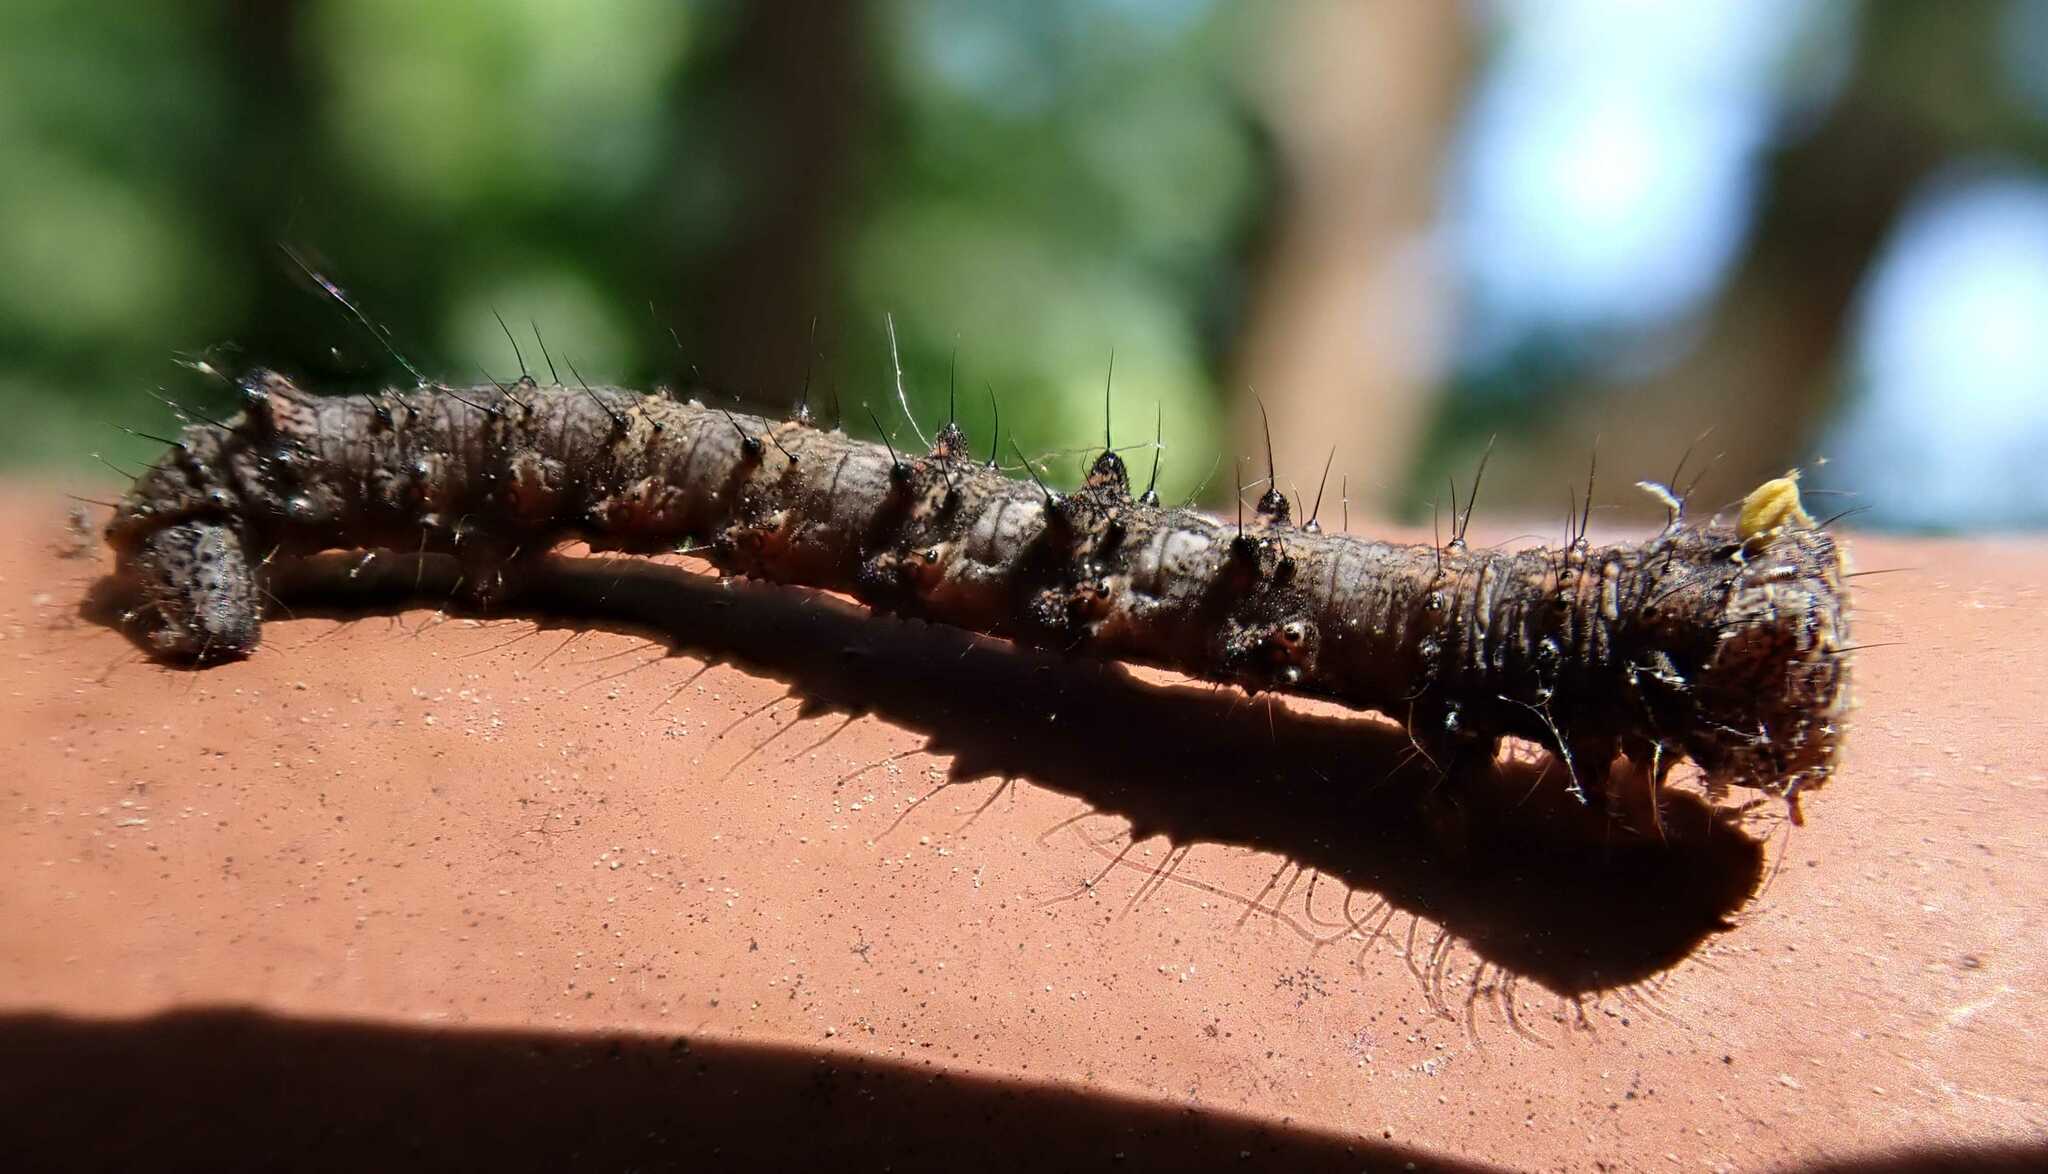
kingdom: Animalia
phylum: Arthropoda
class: Insecta
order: Lepidoptera
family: Geometridae
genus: Phigalia
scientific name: Phigalia pilosaria
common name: Pale brindled beauty
